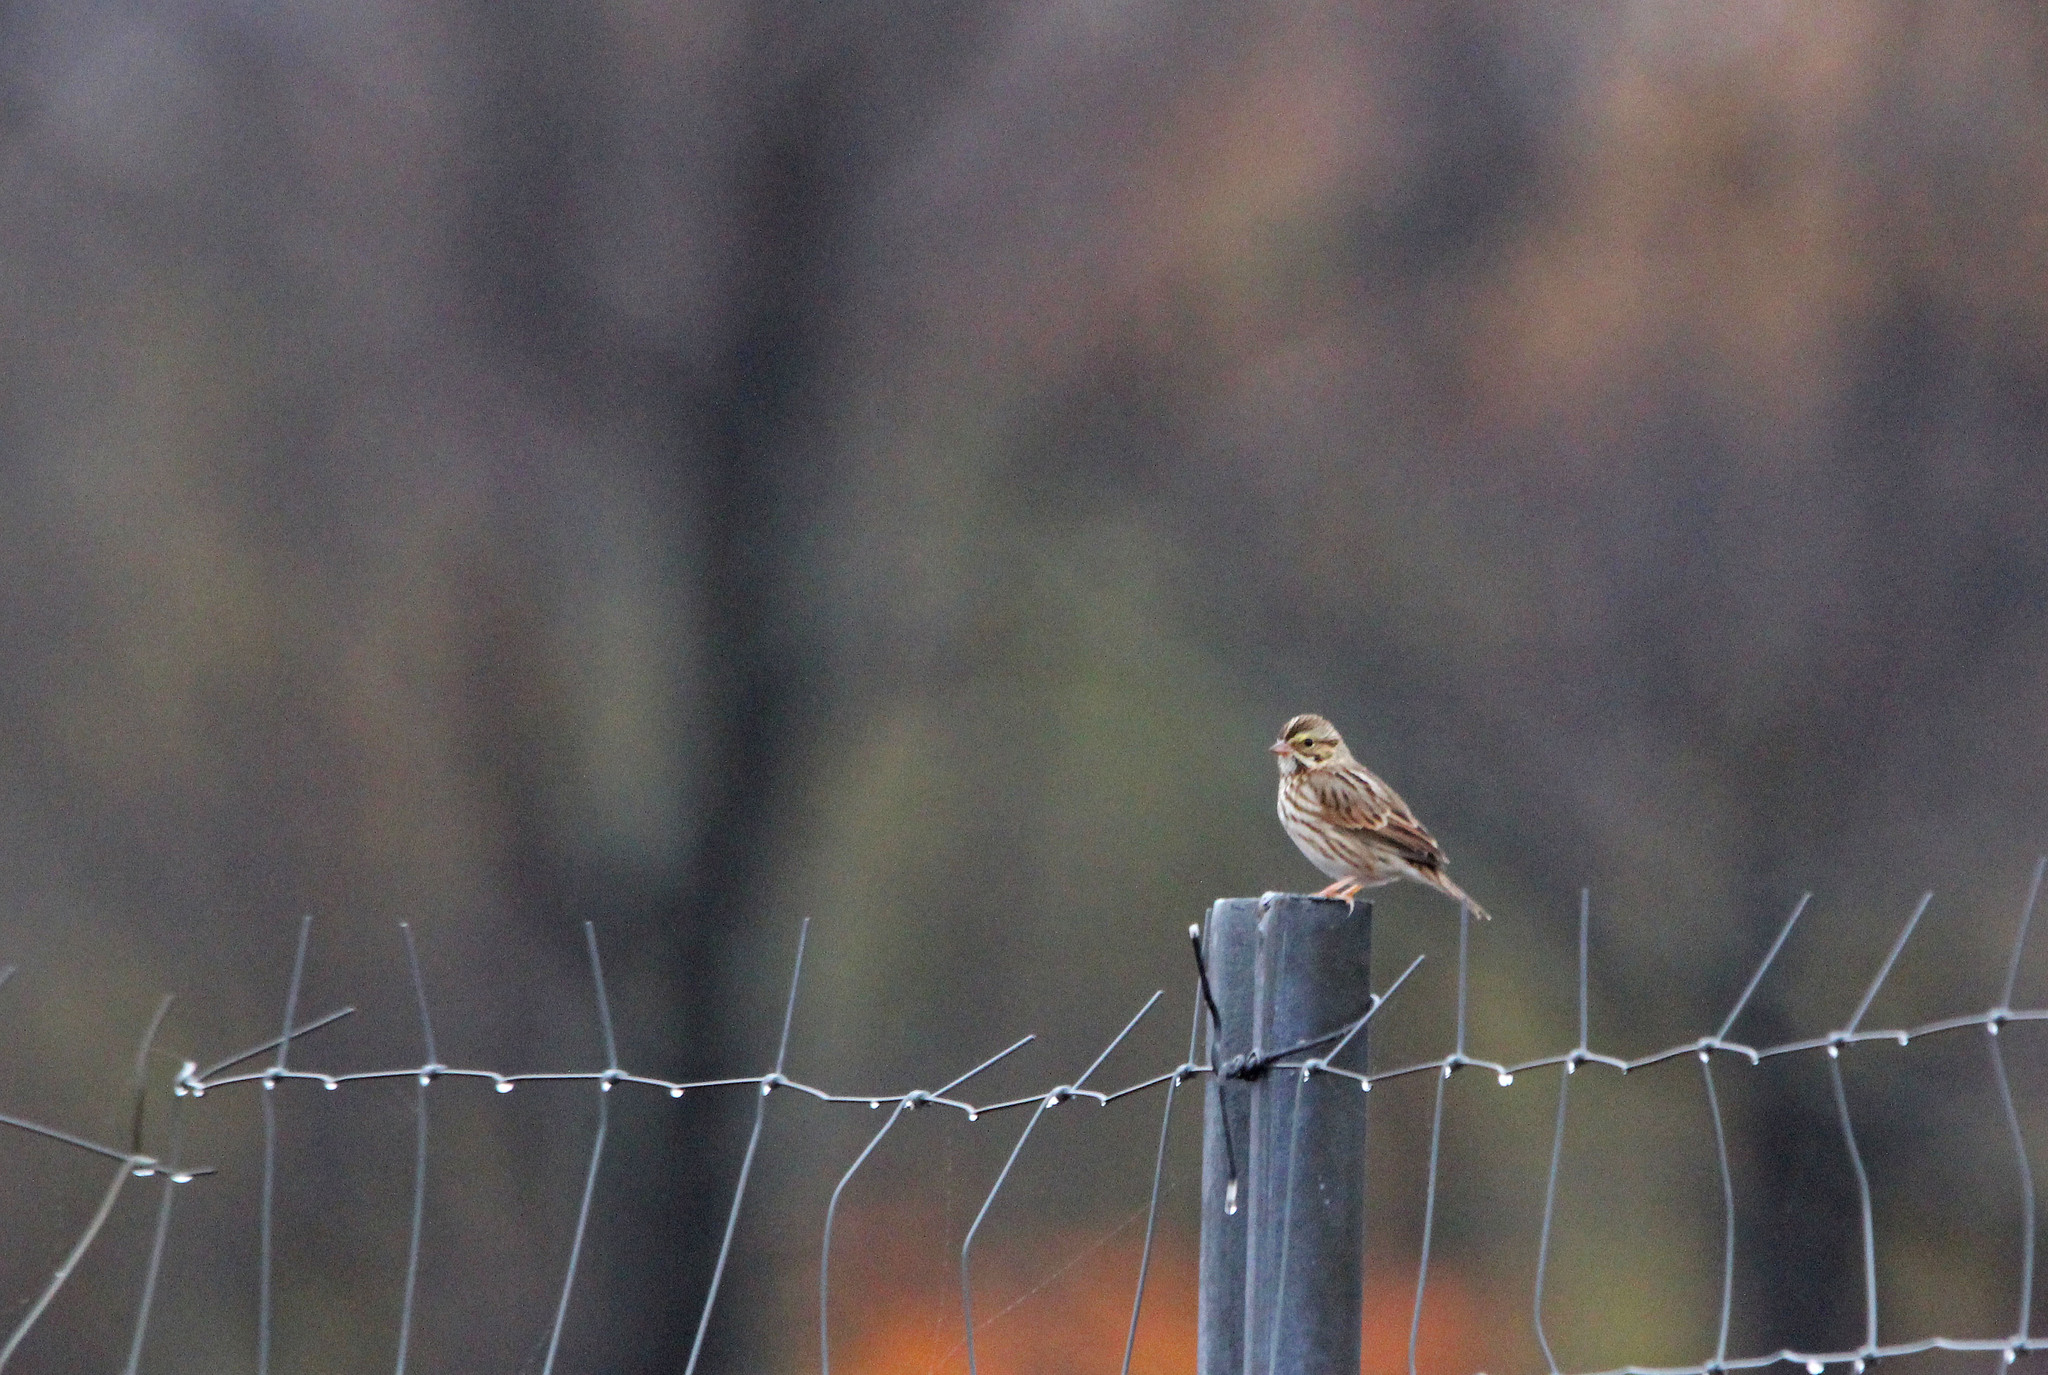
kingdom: Animalia
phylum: Chordata
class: Aves
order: Passeriformes
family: Passerellidae
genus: Passerculus
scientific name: Passerculus sandwichensis
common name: Savannah sparrow
